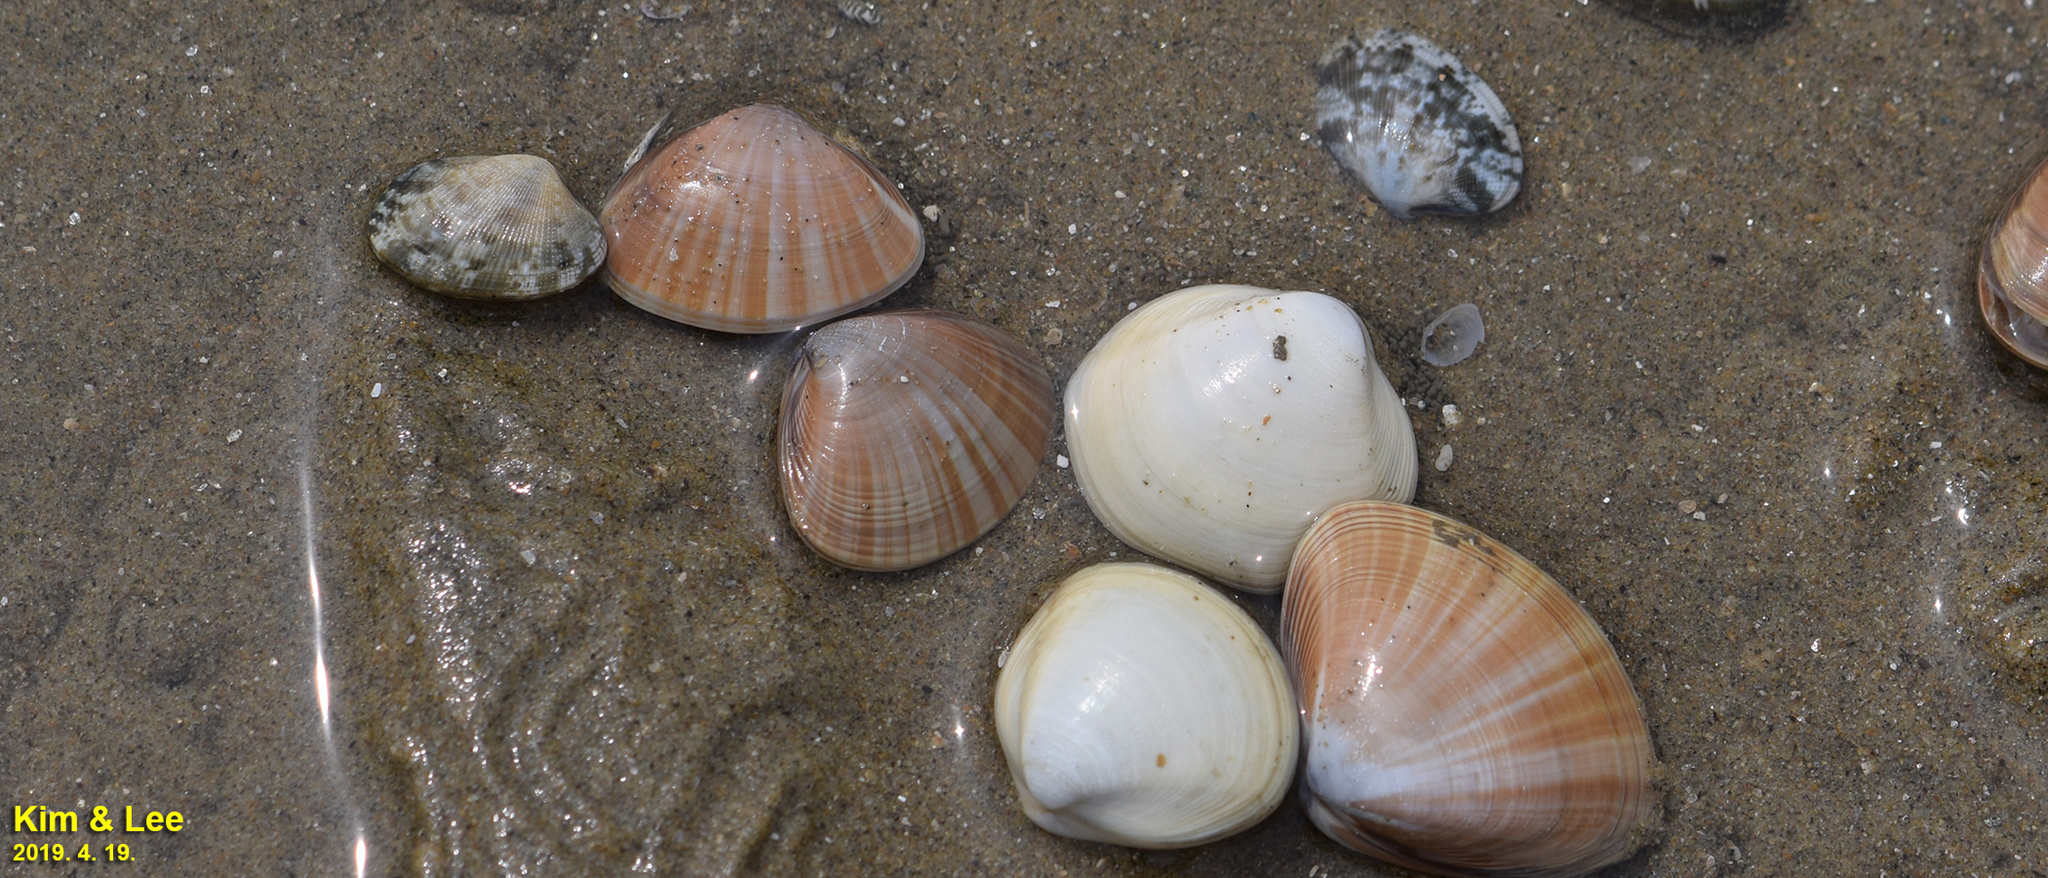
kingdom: Animalia
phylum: Mollusca
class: Bivalvia
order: Venerida
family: Mactridae
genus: Mactra
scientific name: Mactra chinensis
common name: Chinese surf clam
